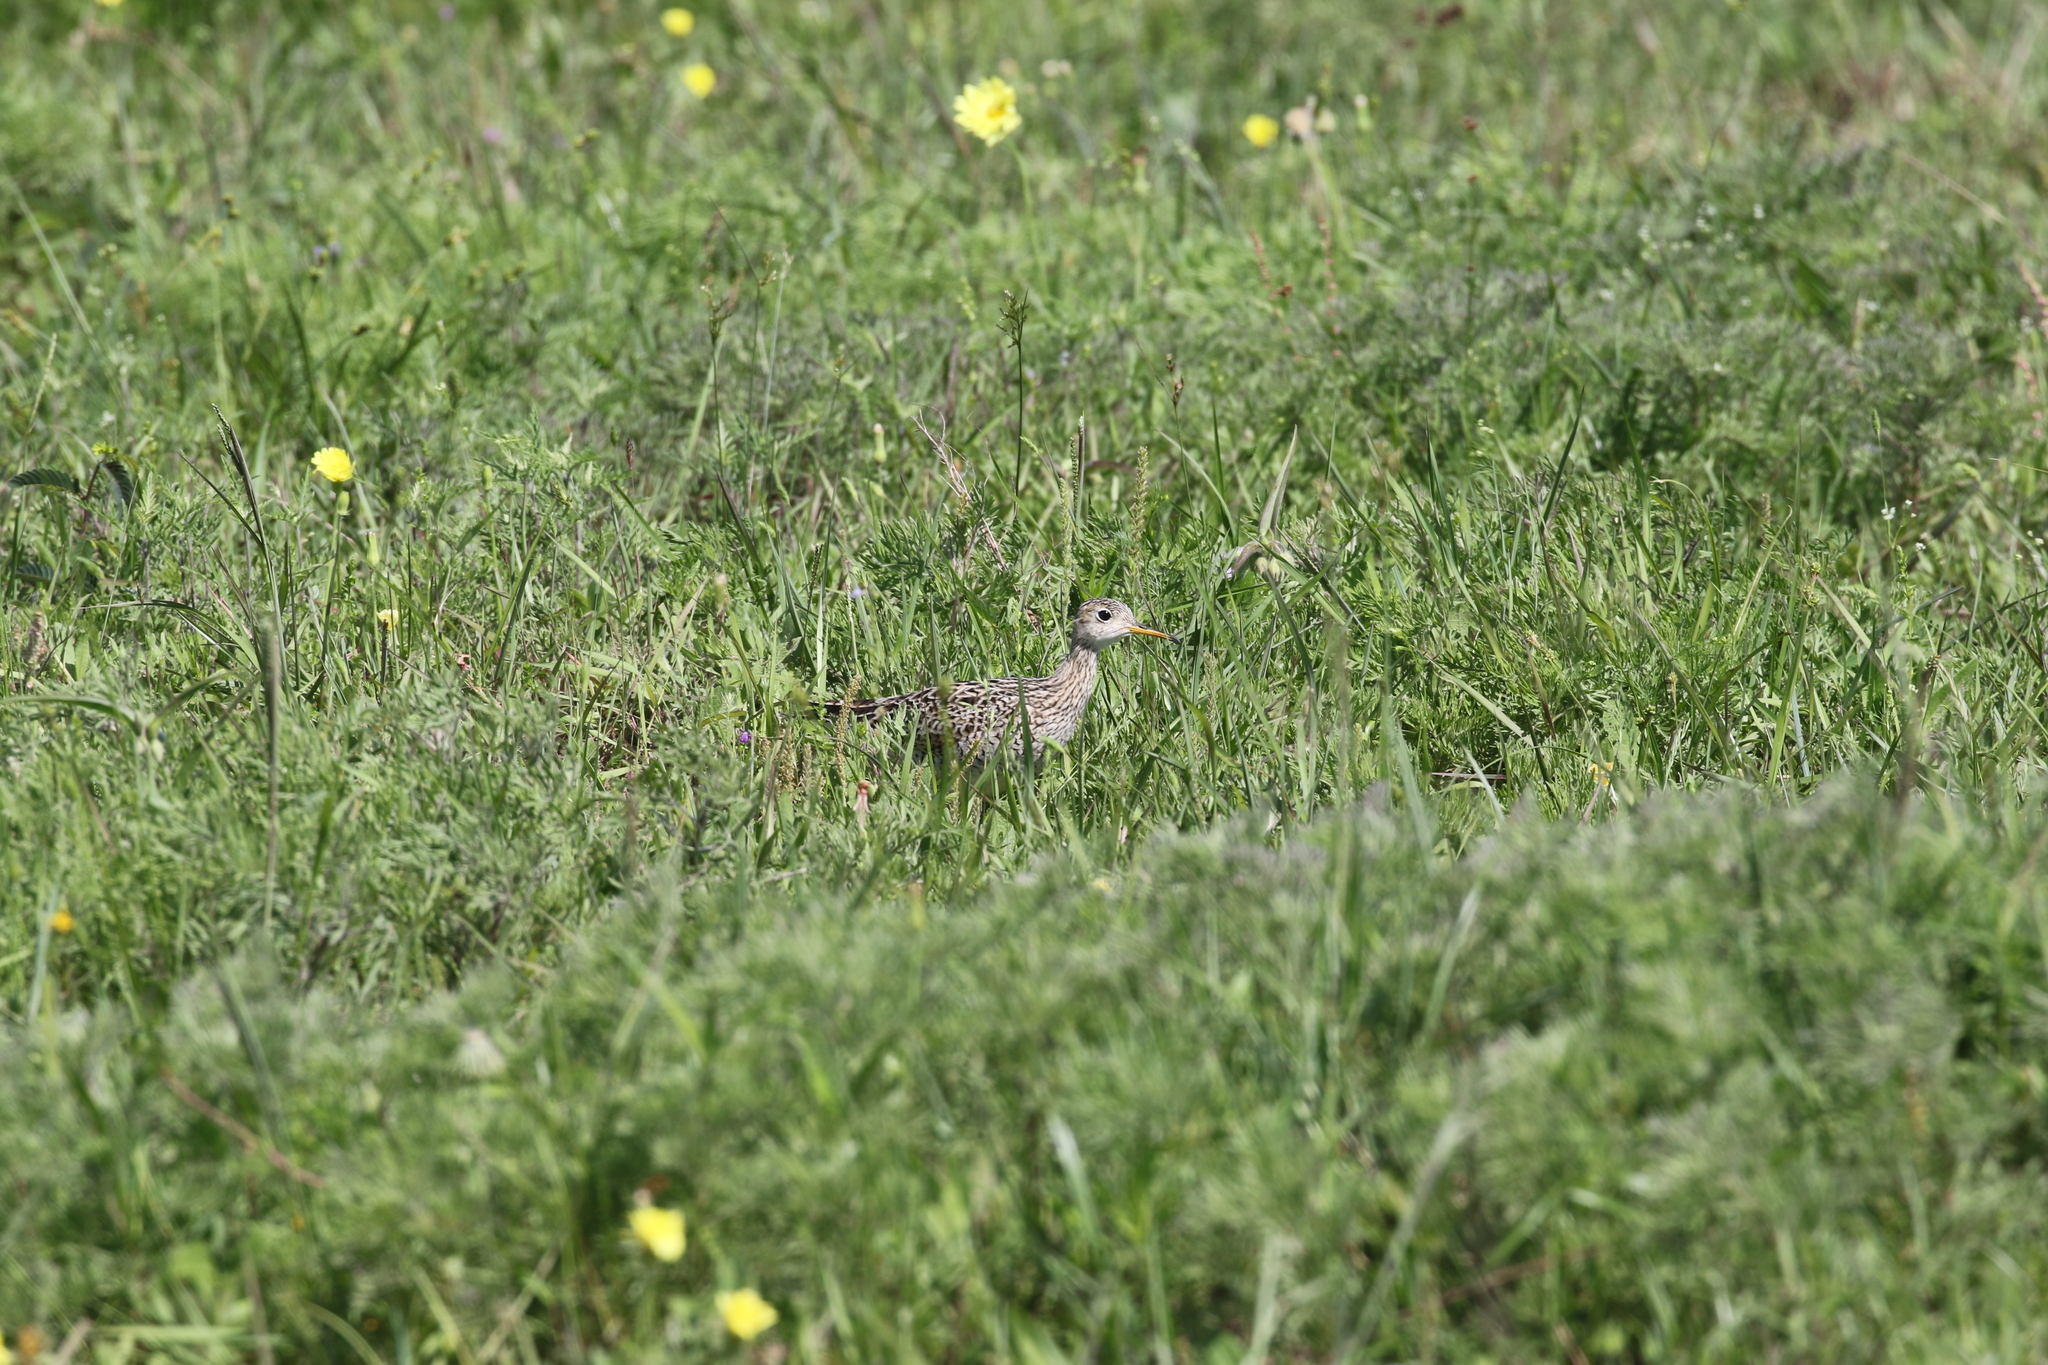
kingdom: Animalia
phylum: Chordata
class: Aves
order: Charadriiformes
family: Scolopacidae
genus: Bartramia
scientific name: Bartramia longicauda
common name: Upland sandpiper
